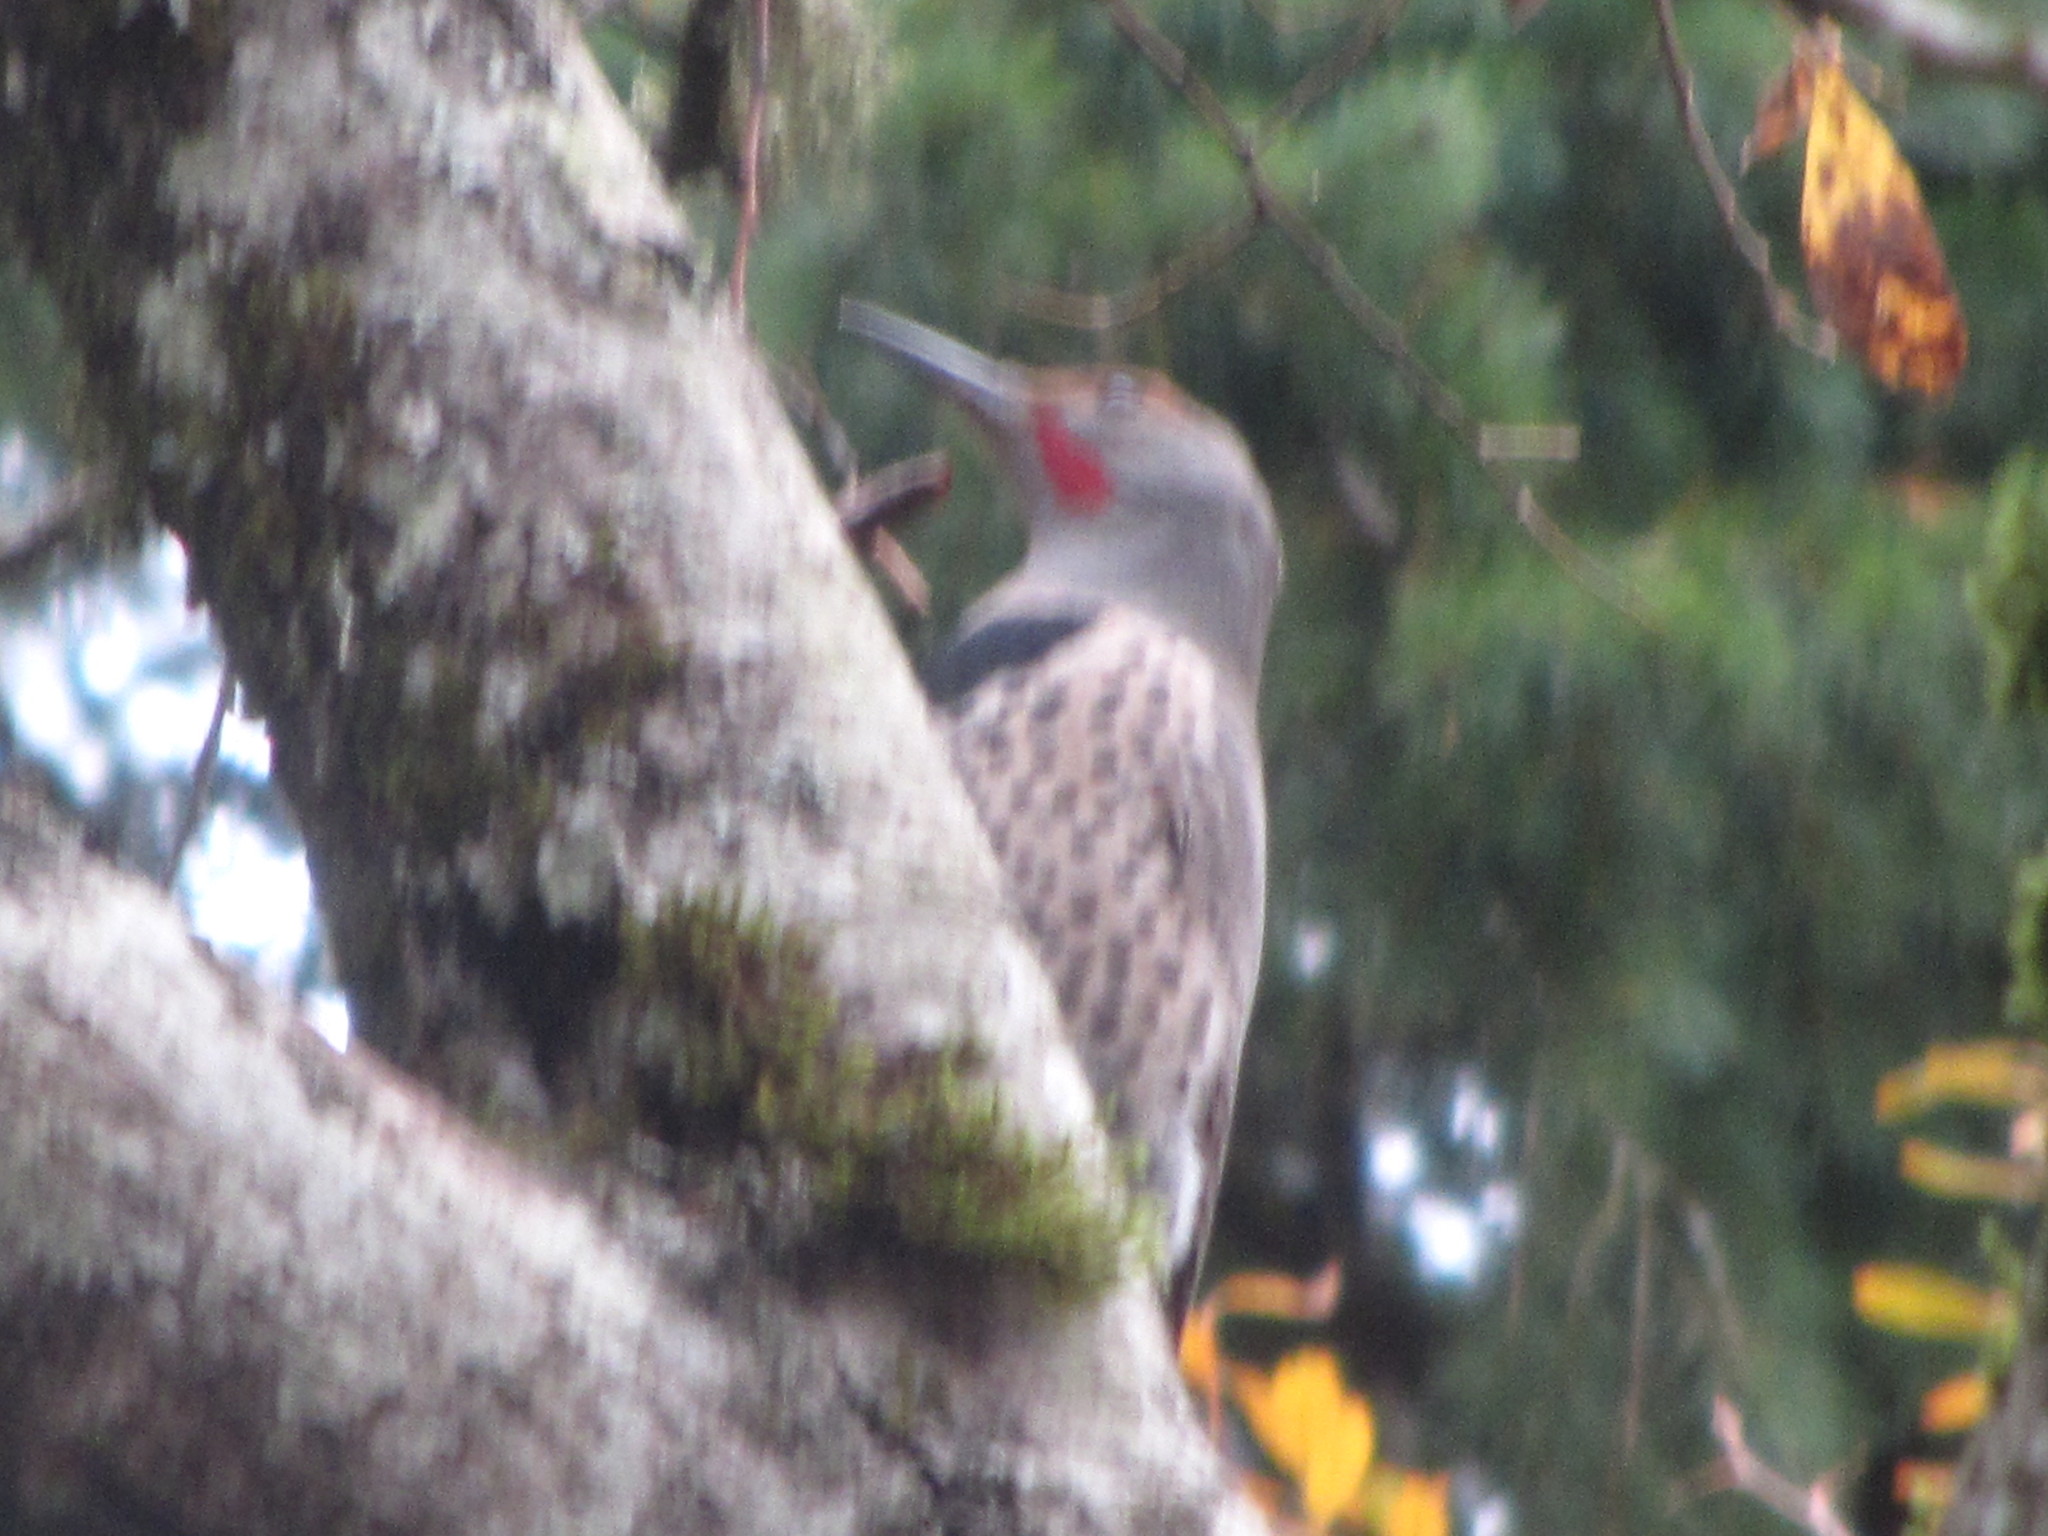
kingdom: Animalia
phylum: Chordata
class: Aves
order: Piciformes
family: Picidae
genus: Colaptes
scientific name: Colaptes auratus
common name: Northern flicker
